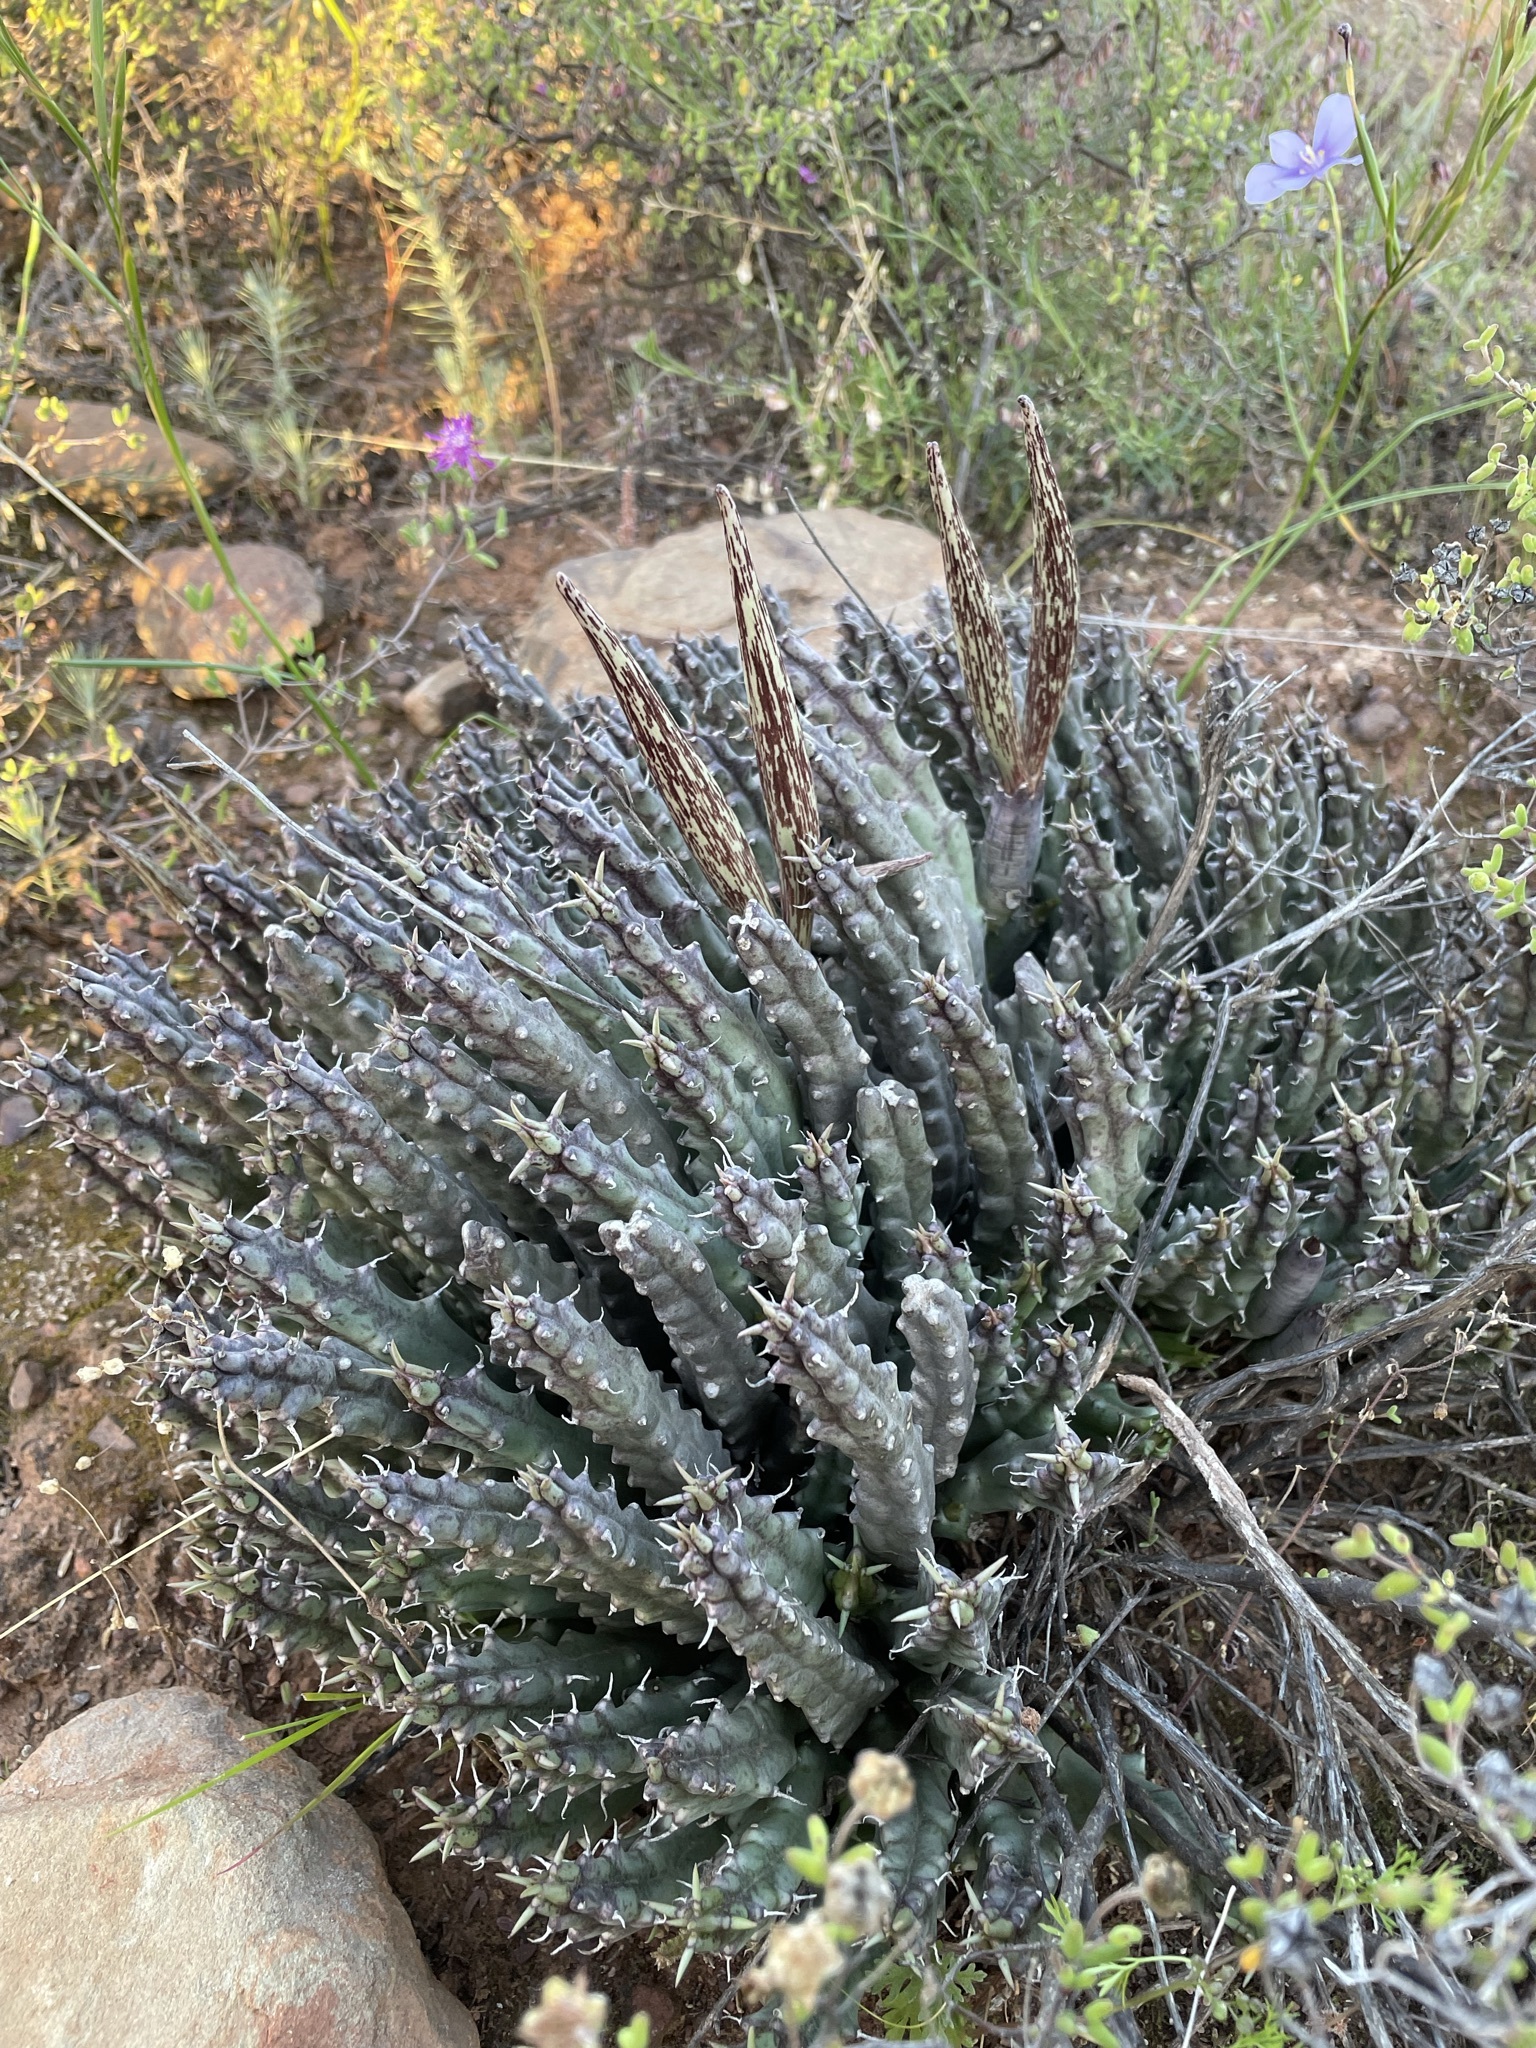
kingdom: Plantae
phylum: Tracheophyta
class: Magnoliopsida
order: Gentianales
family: Apocynaceae
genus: Ceropegia
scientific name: Ceropegia gemmiflora
